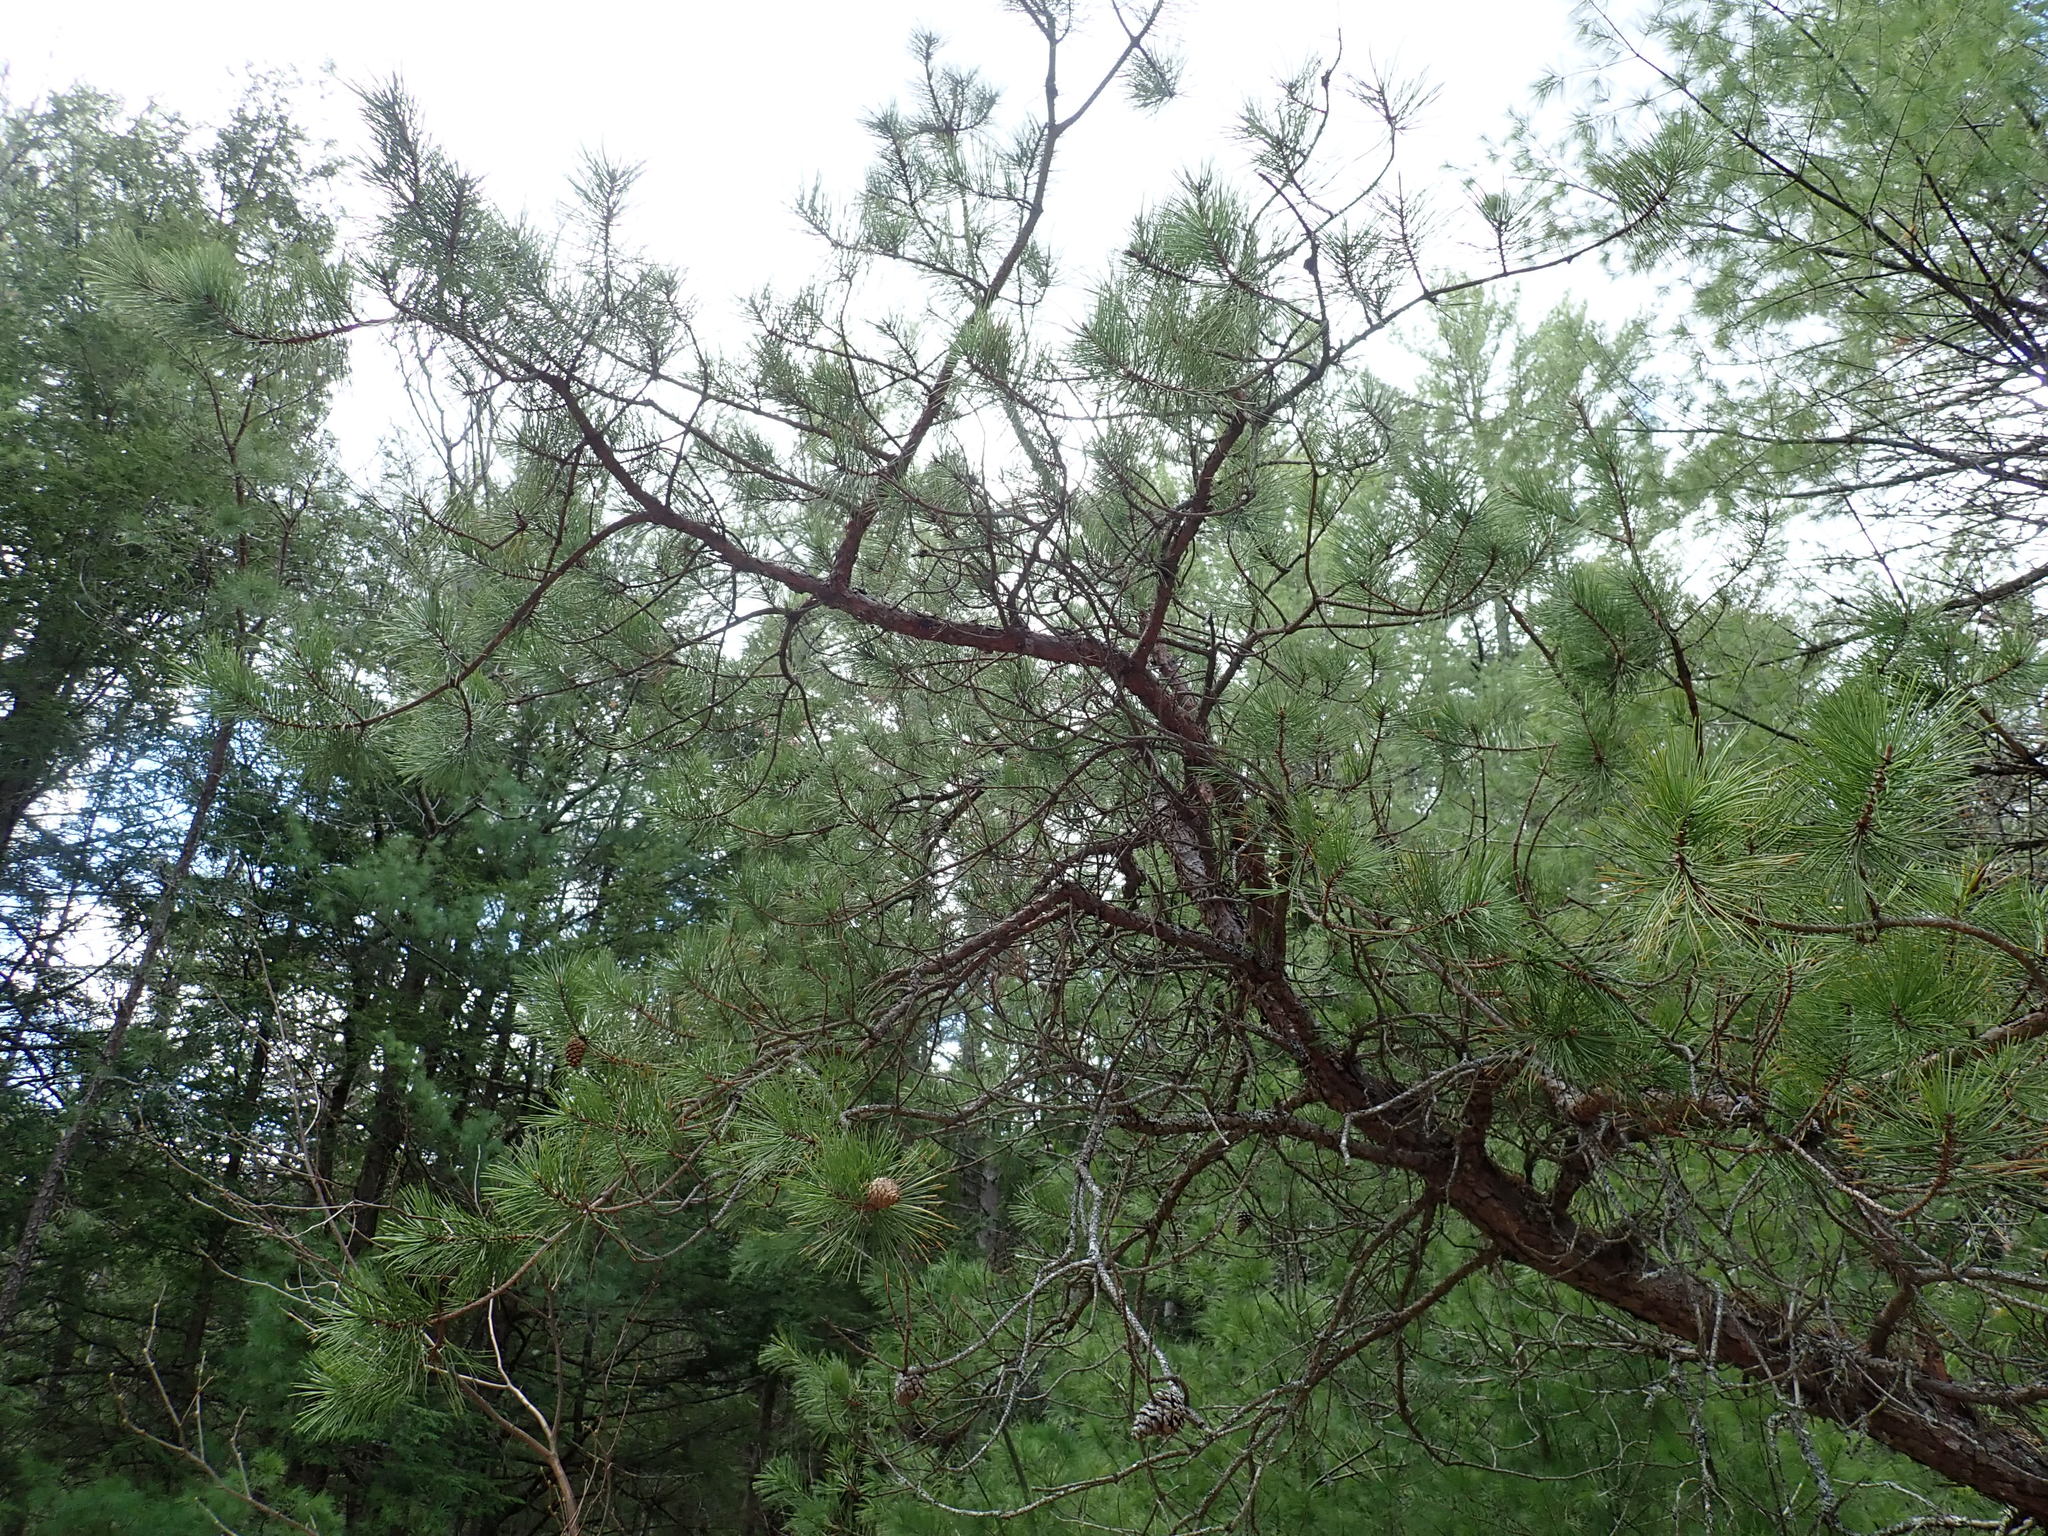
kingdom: Plantae
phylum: Tracheophyta
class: Pinopsida
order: Pinales
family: Pinaceae
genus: Pinus
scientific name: Pinus rigida
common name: Pitch pine
